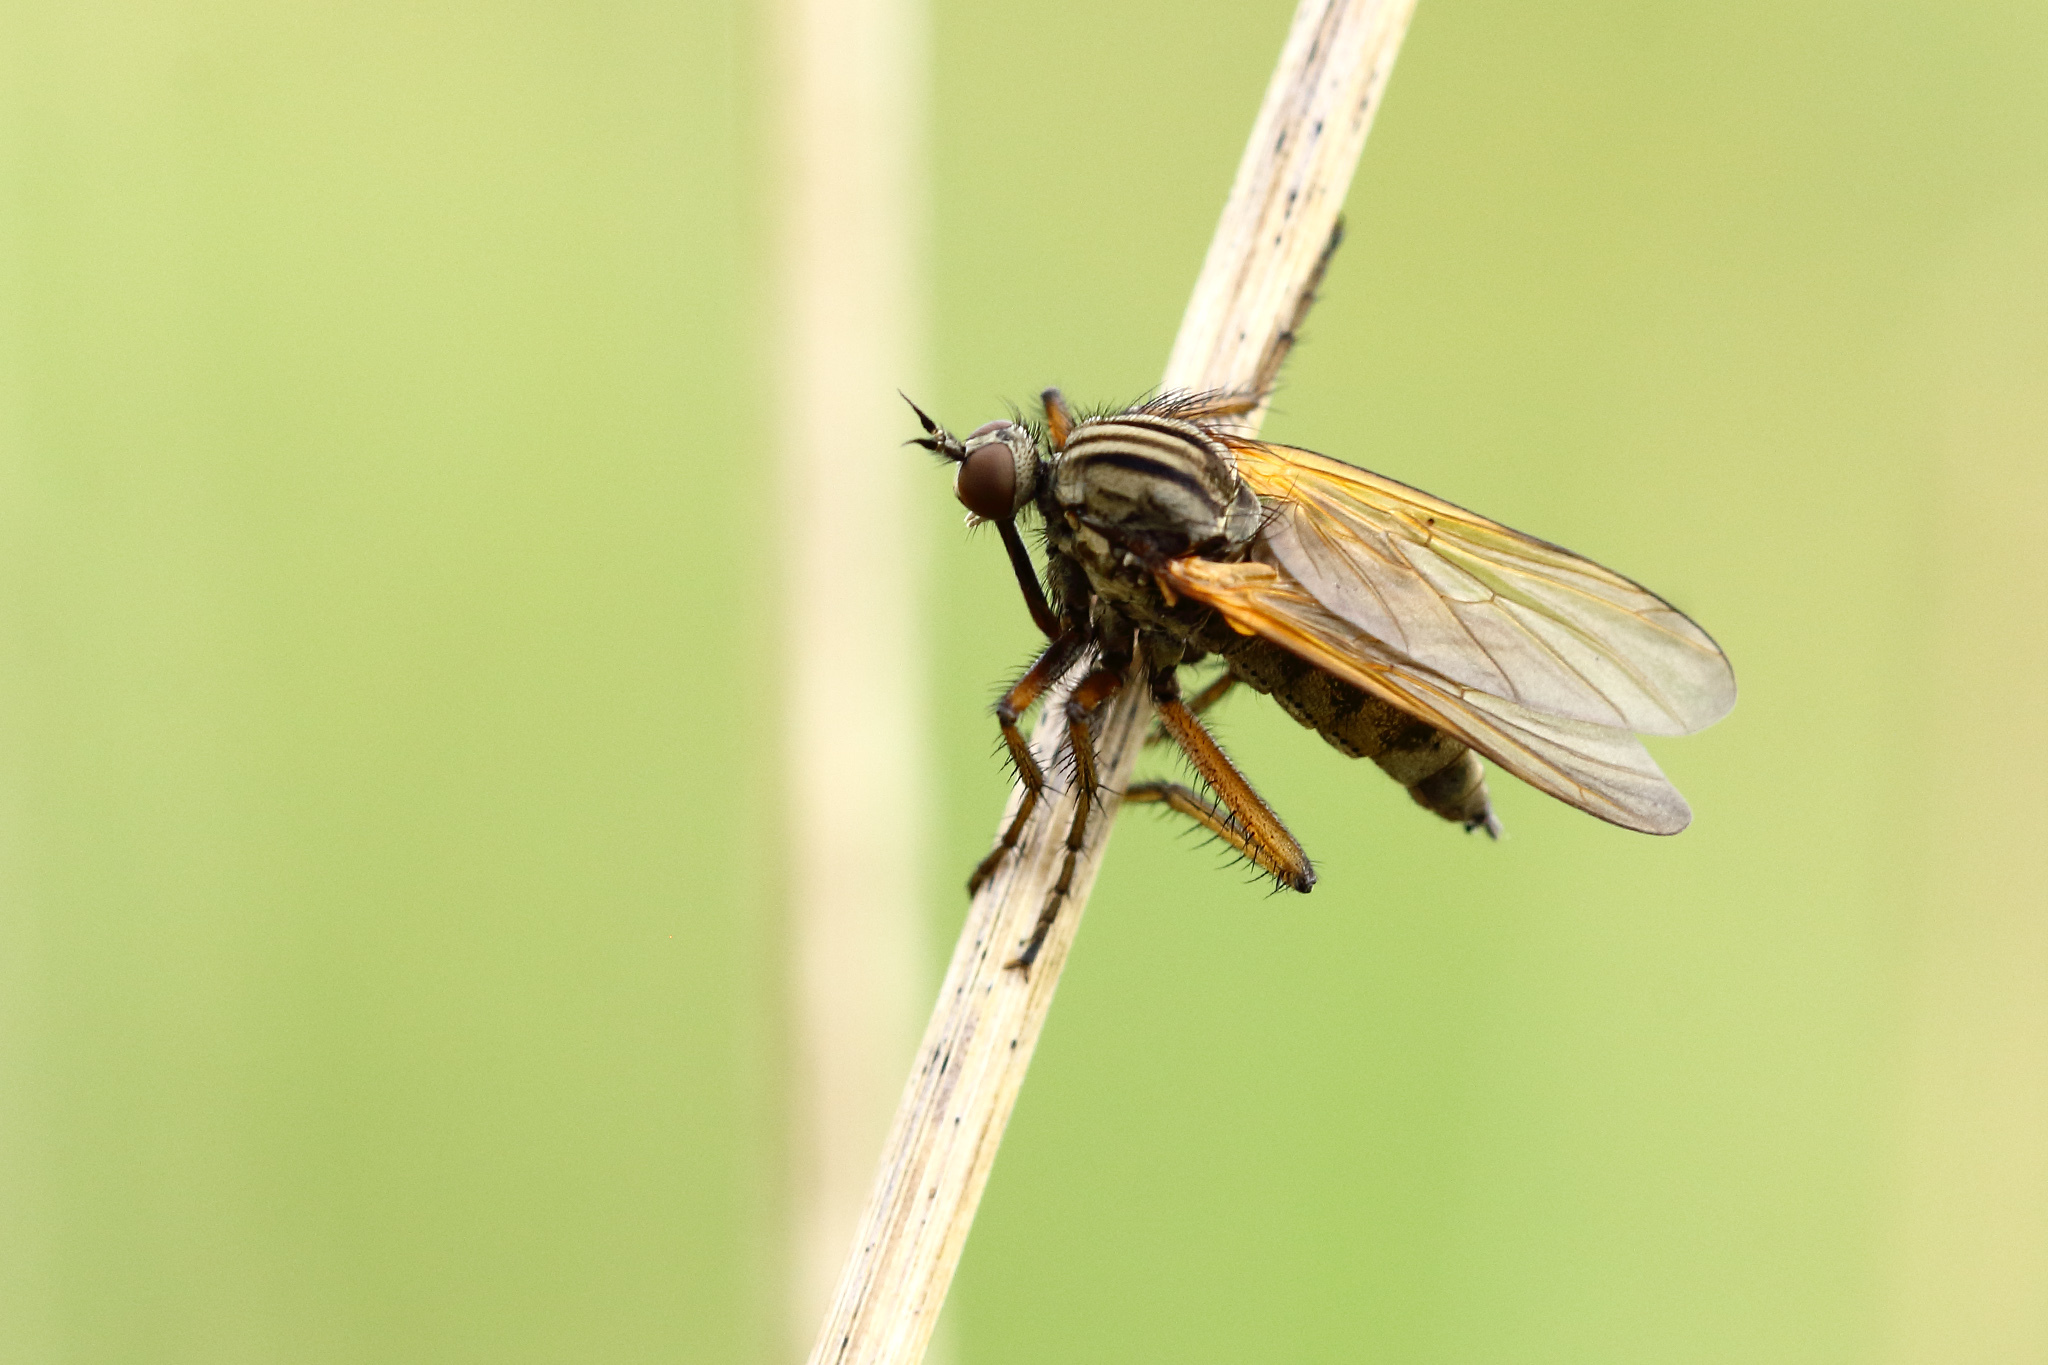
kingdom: Animalia
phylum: Arthropoda
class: Insecta
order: Diptera
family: Empididae
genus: Empis
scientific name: Empis tessellata
